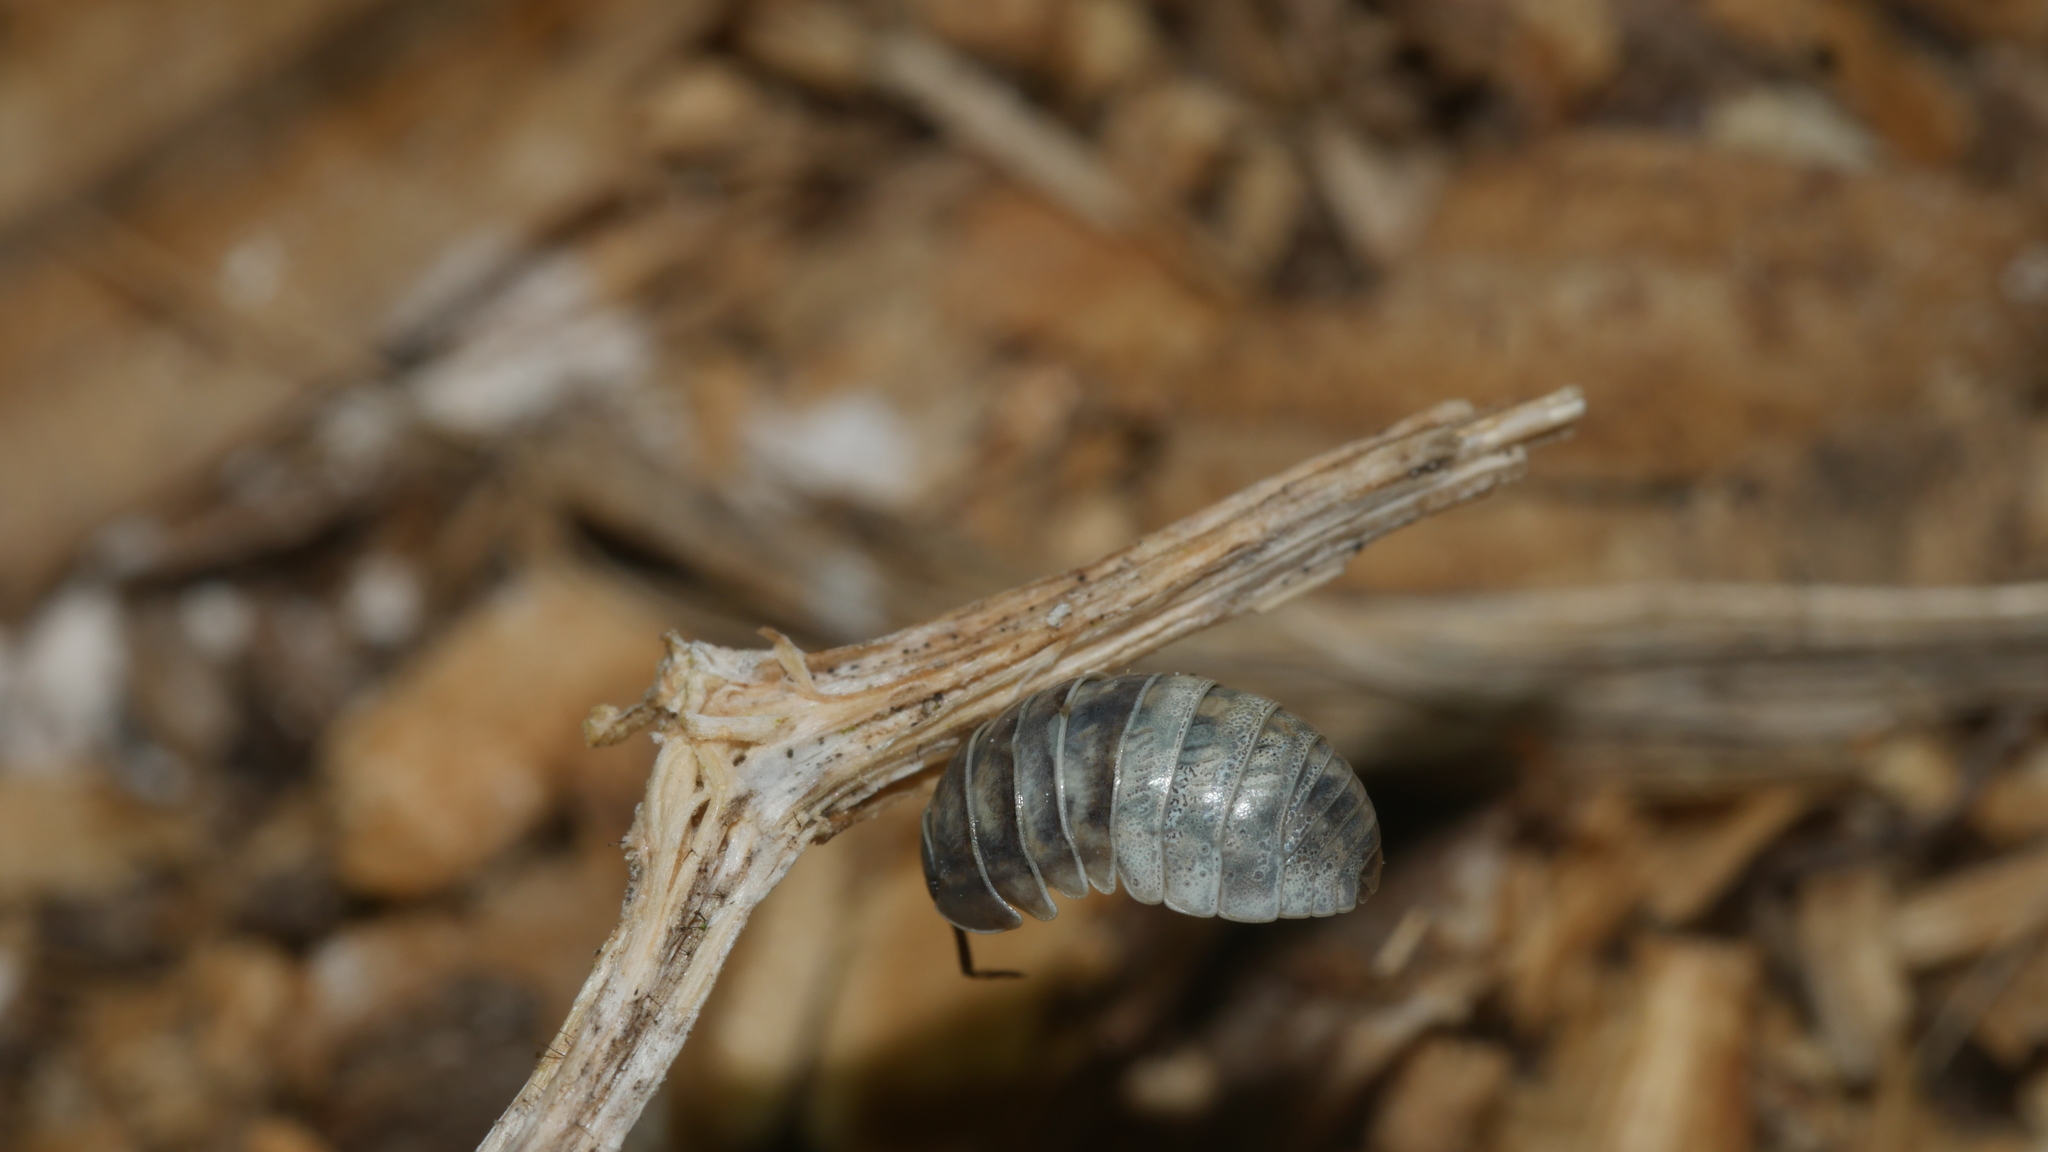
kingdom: Animalia
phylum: Arthropoda
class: Malacostraca
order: Isopoda
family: Armadillidiidae
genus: Armadillidium
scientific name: Armadillidium vulgare
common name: Common pill woodlouse
